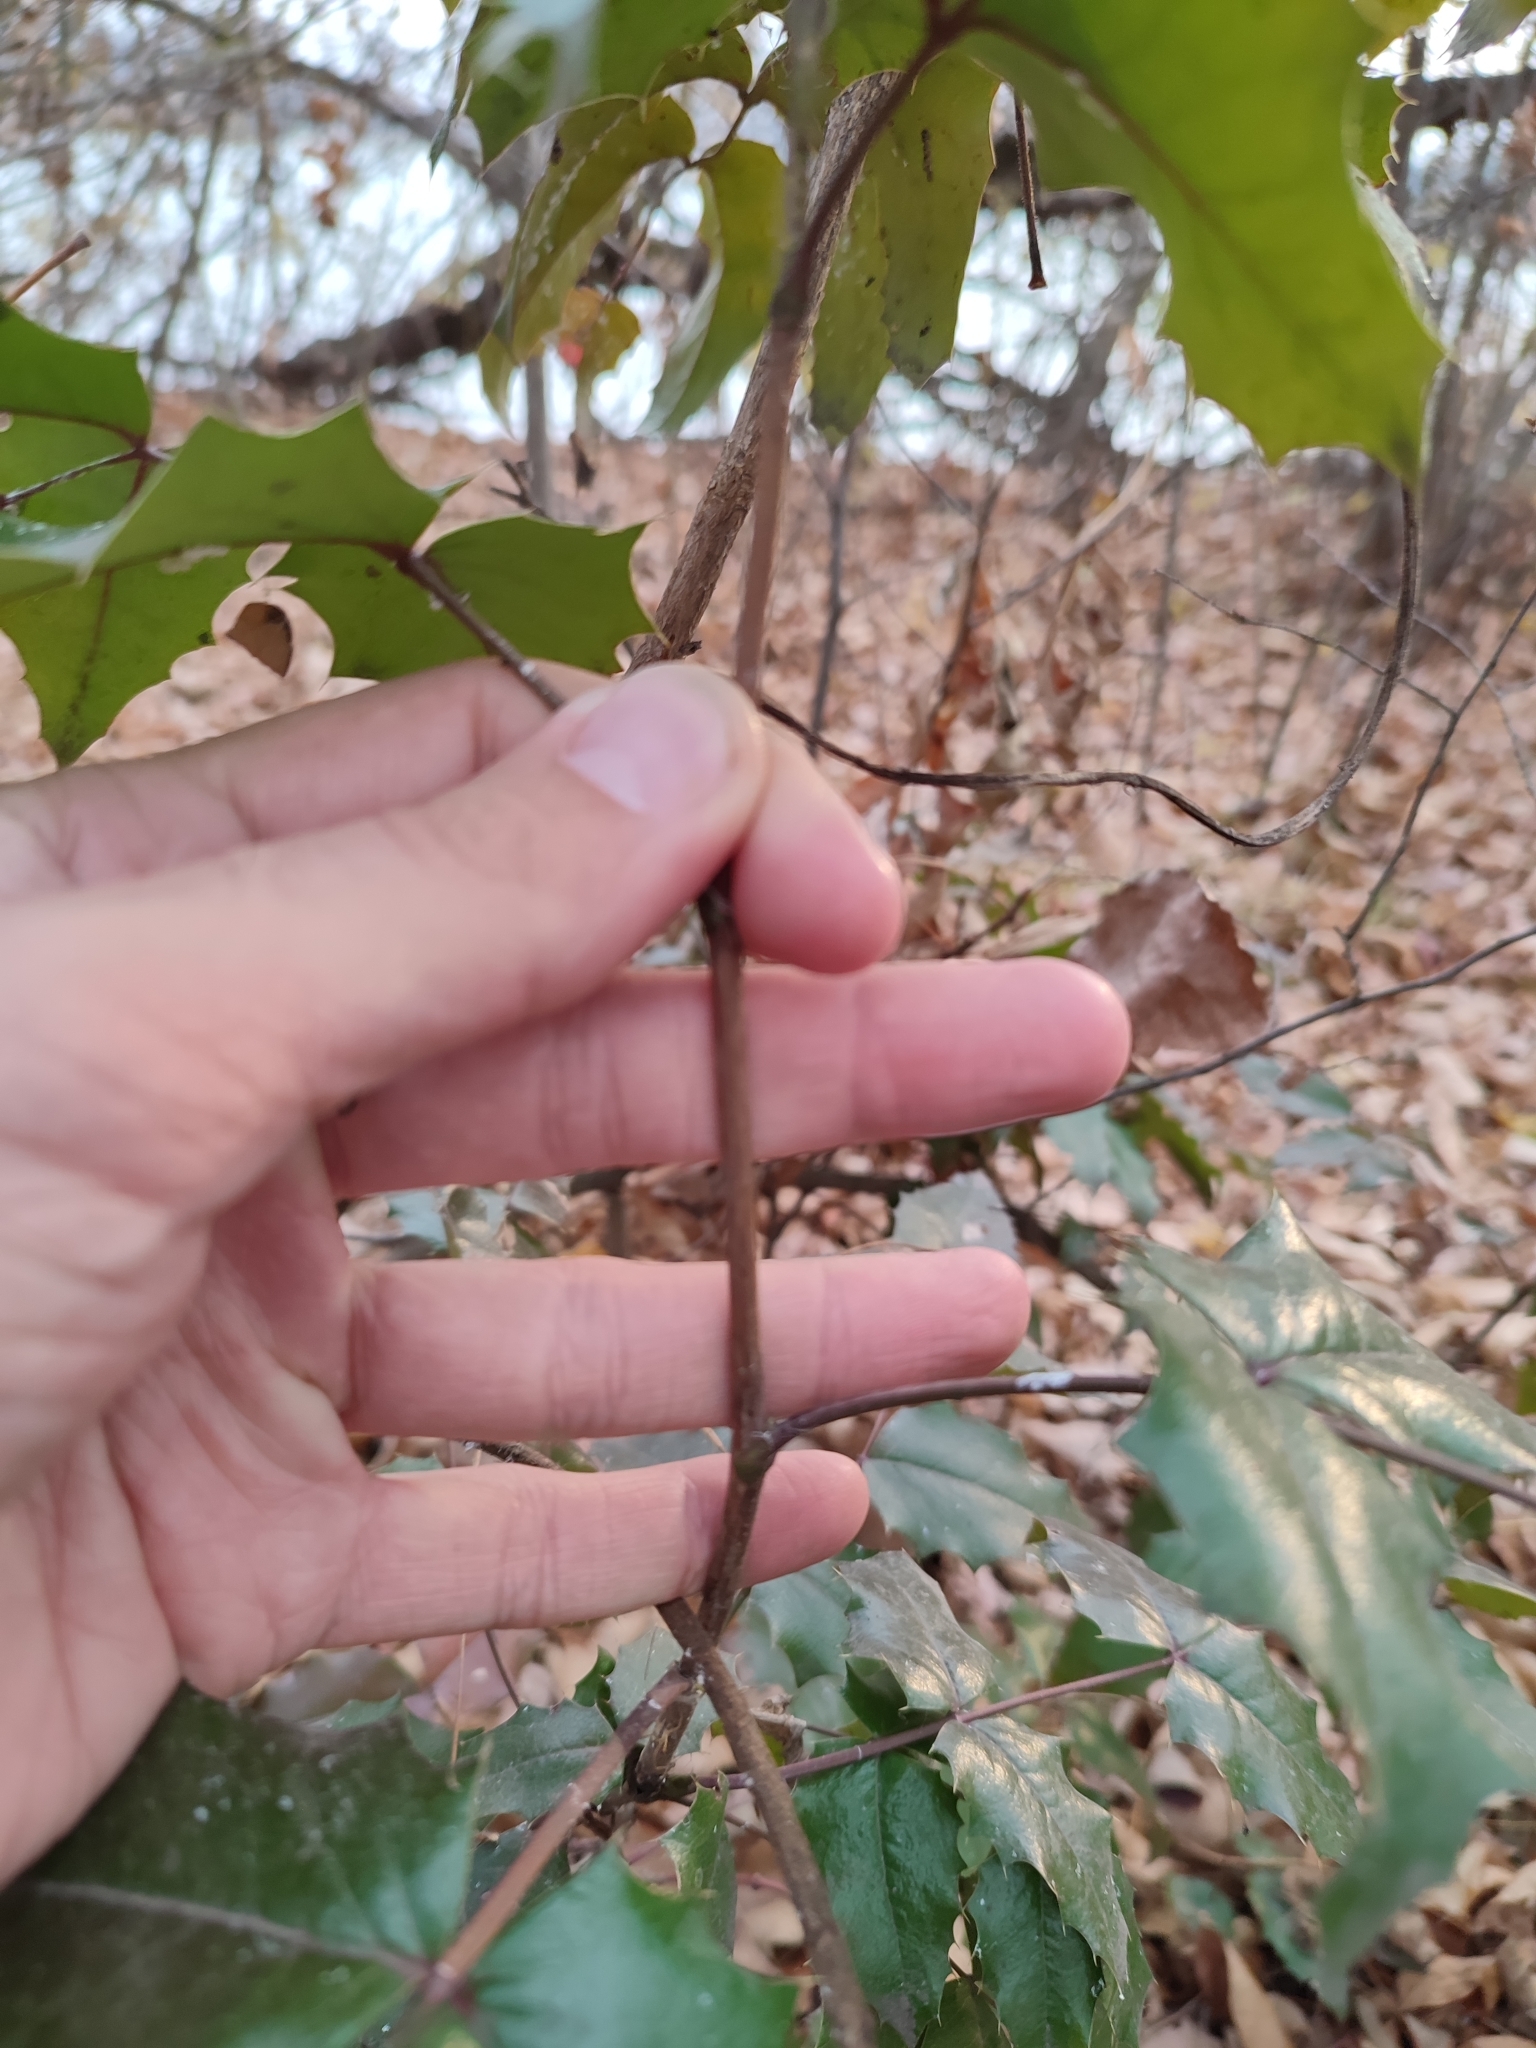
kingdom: Plantae
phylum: Tracheophyta
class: Magnoliopsida
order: Ranunculales
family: Berberidaceae
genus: Mahonia
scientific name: Mahonia aquifolium
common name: Oregon-grape
